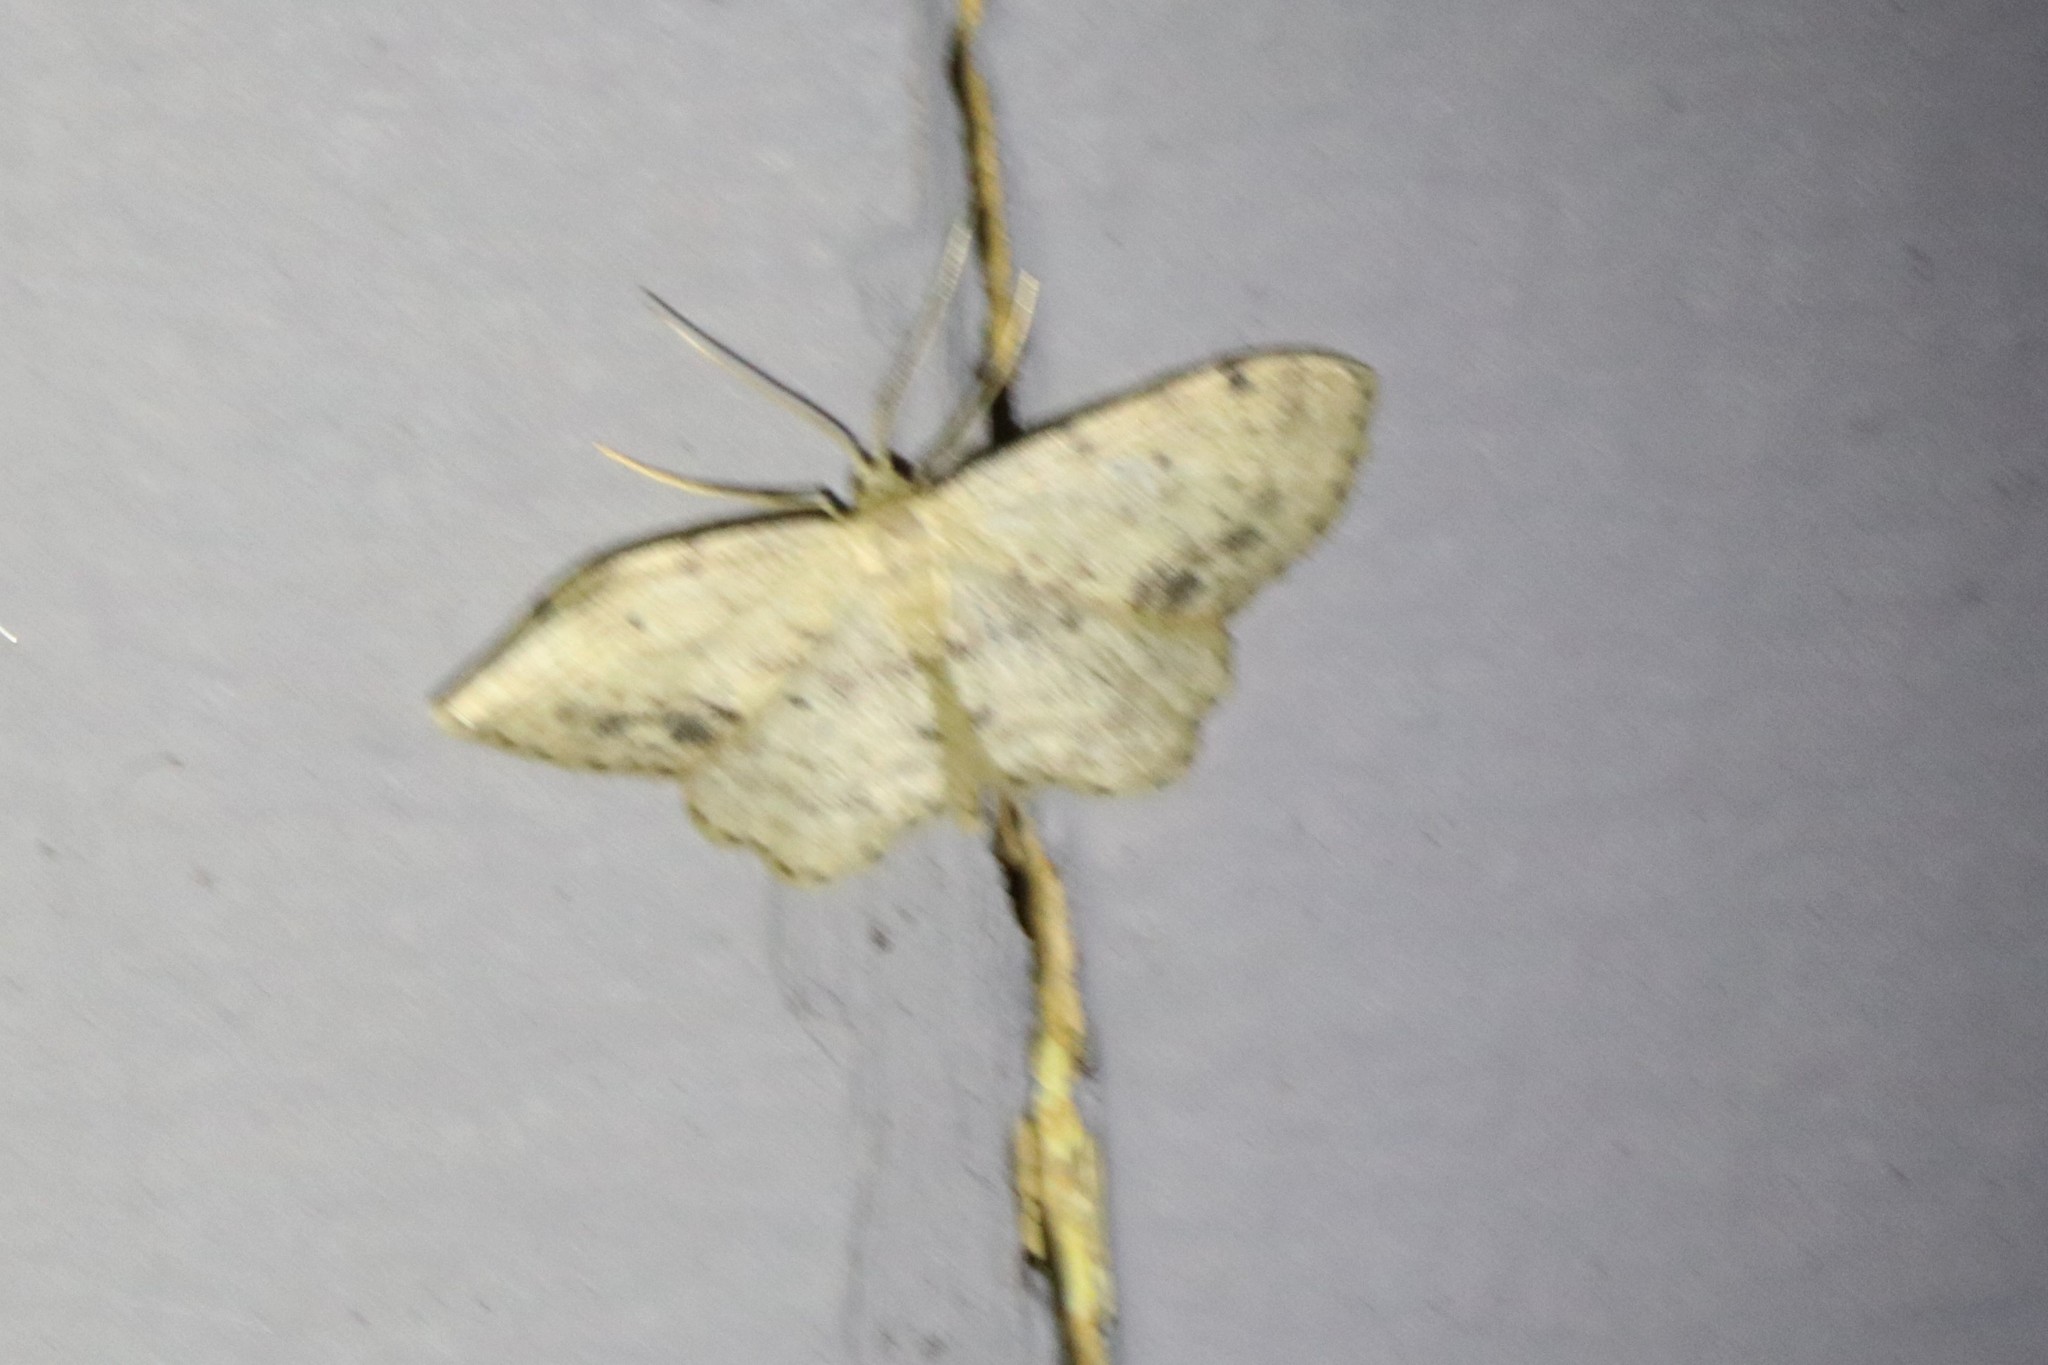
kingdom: Animalia
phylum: Arthropoda
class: Insecta
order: Lepidoptera
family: Geometridae
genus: Idaea
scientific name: Idaea dimidiata
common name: Single-dotted wave
